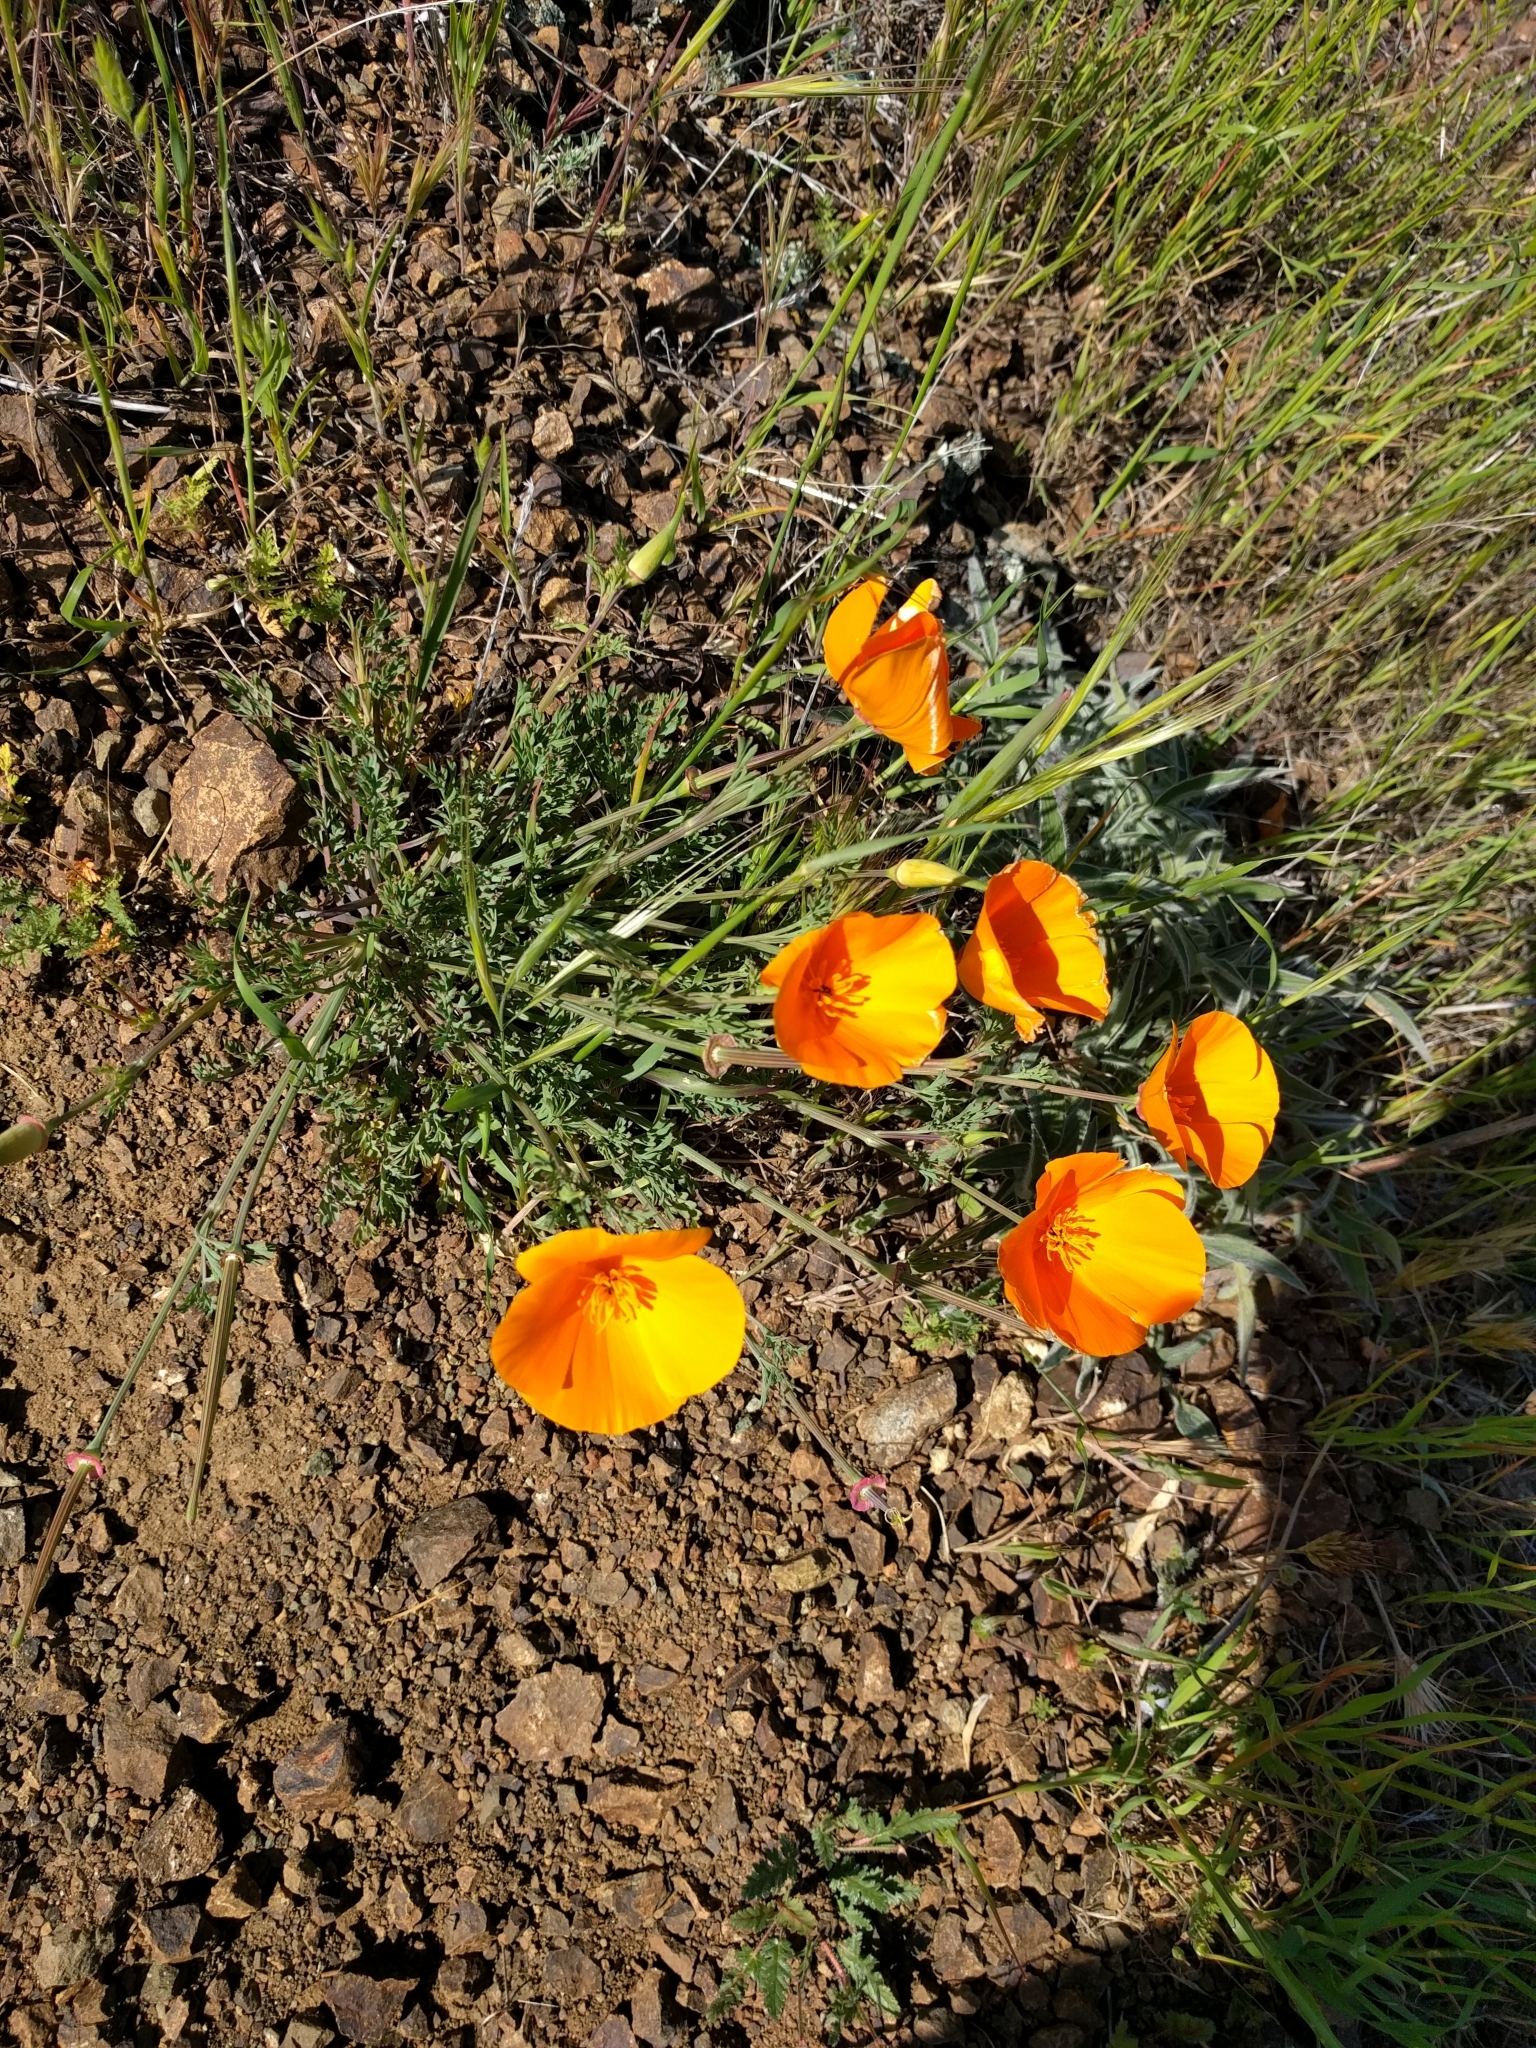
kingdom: Plantae
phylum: Tracheophyta
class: Magnoliopsida
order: Ranunculales
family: Papaveraceae
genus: Eschscholzia
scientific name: Eschscholzia californica
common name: California poppy
